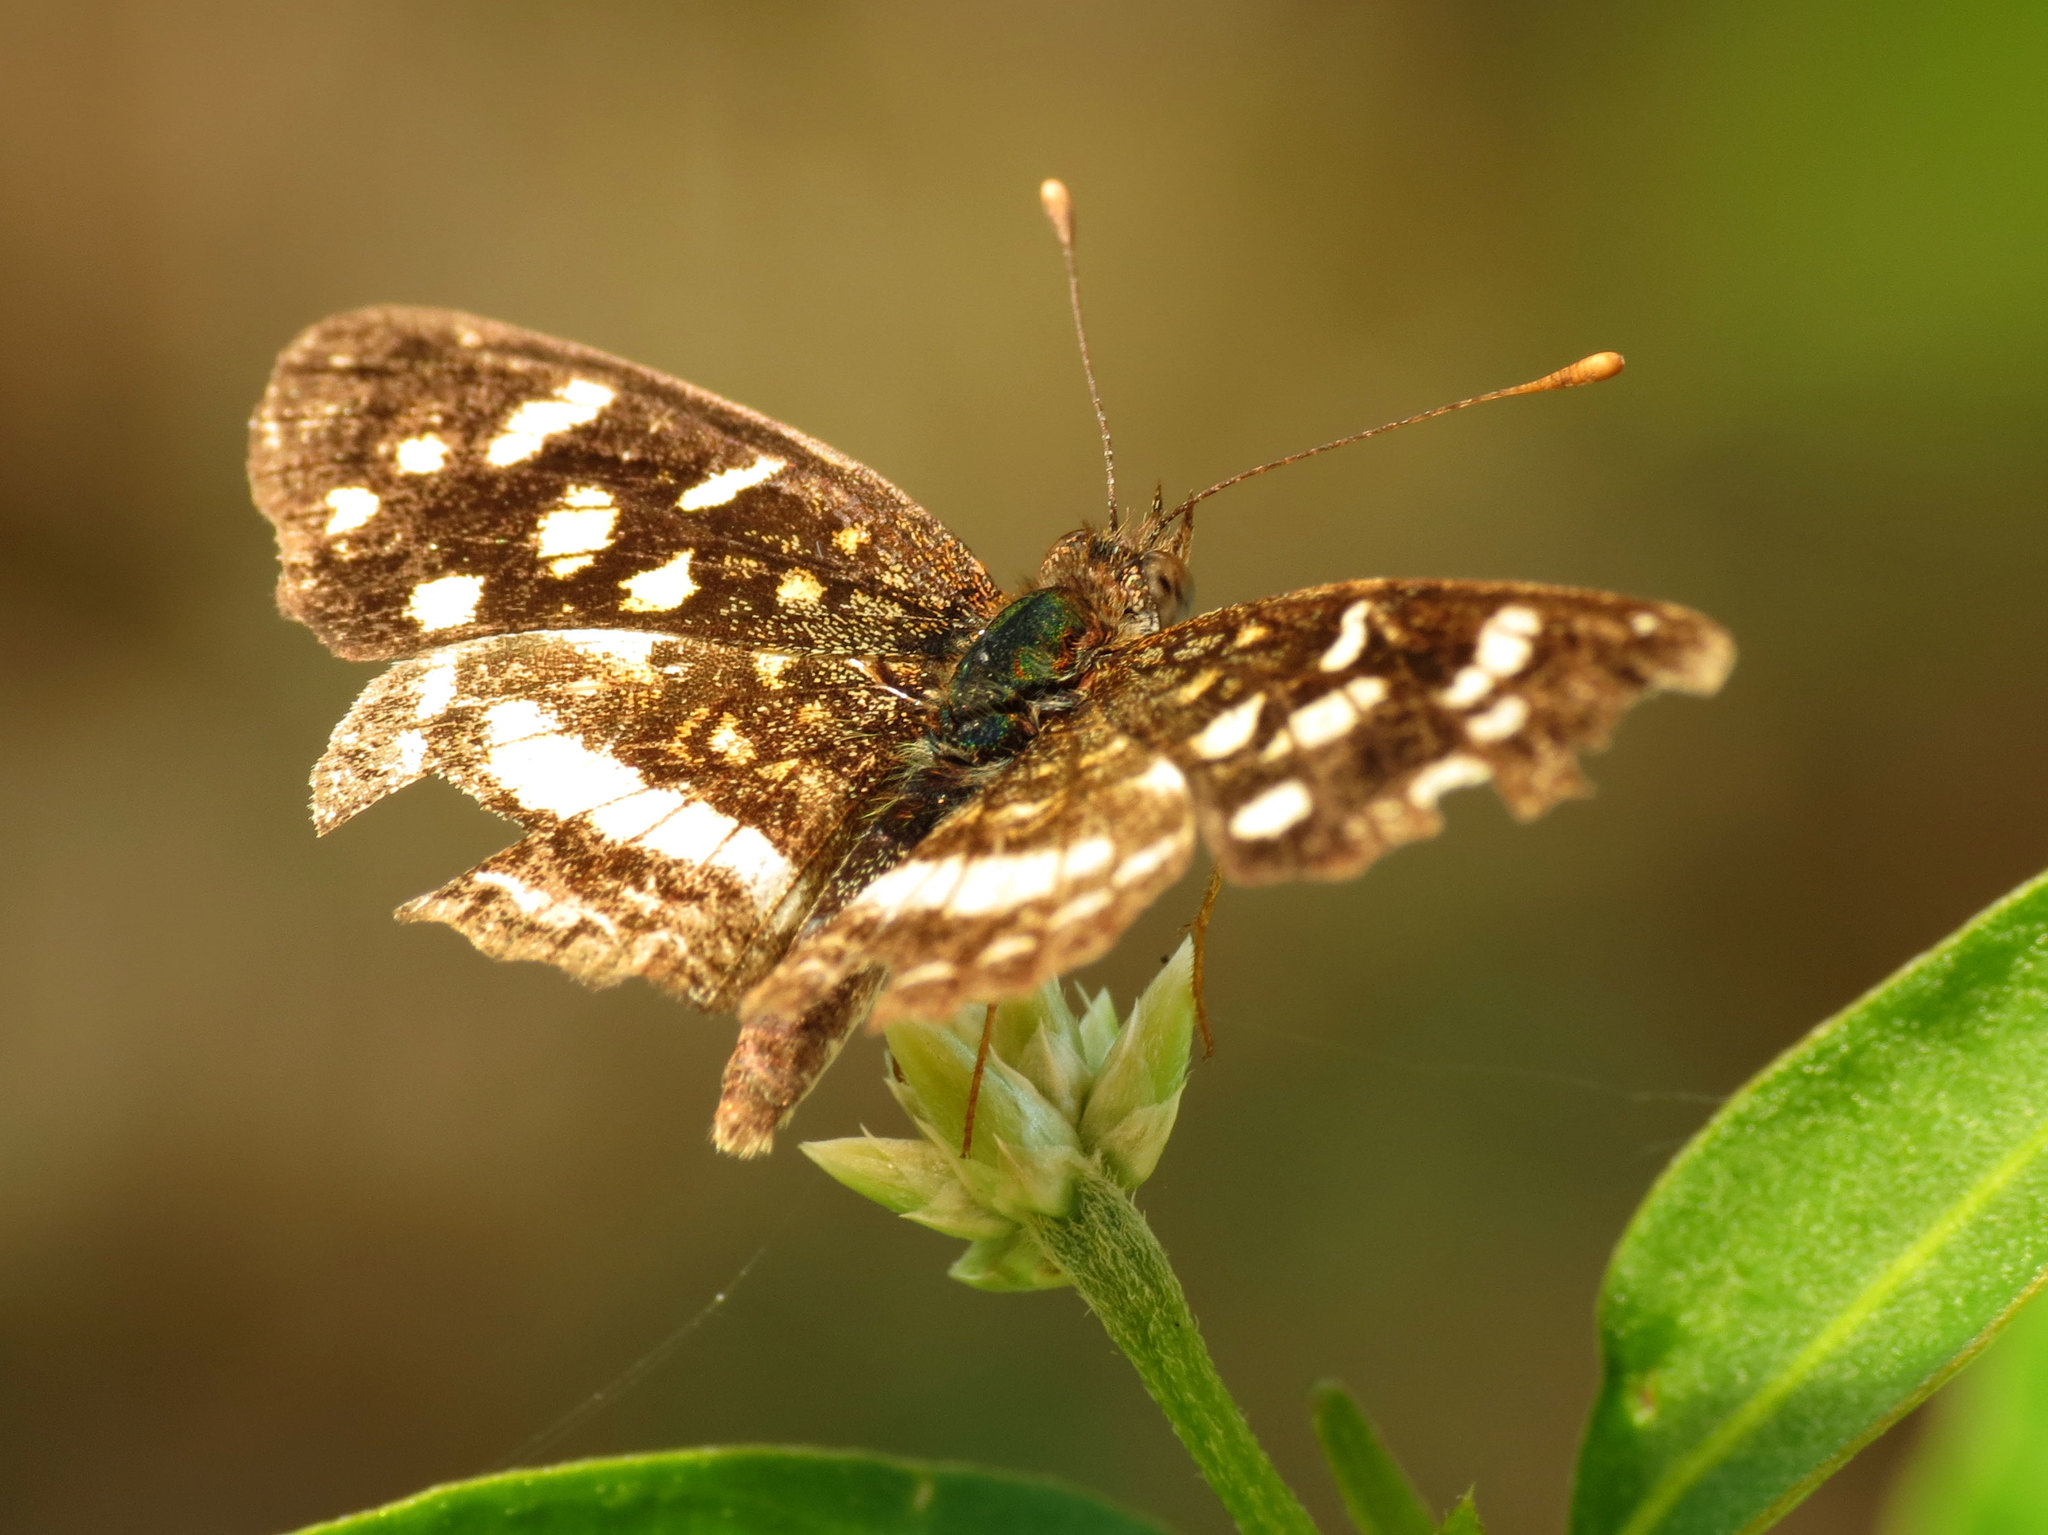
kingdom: Animalia
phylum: Arthropoda
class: Insecta
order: Lepidoptera
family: Nymphalidae
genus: Anthanassa
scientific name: Anthanassa tulcis
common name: Pale-banded crescent
